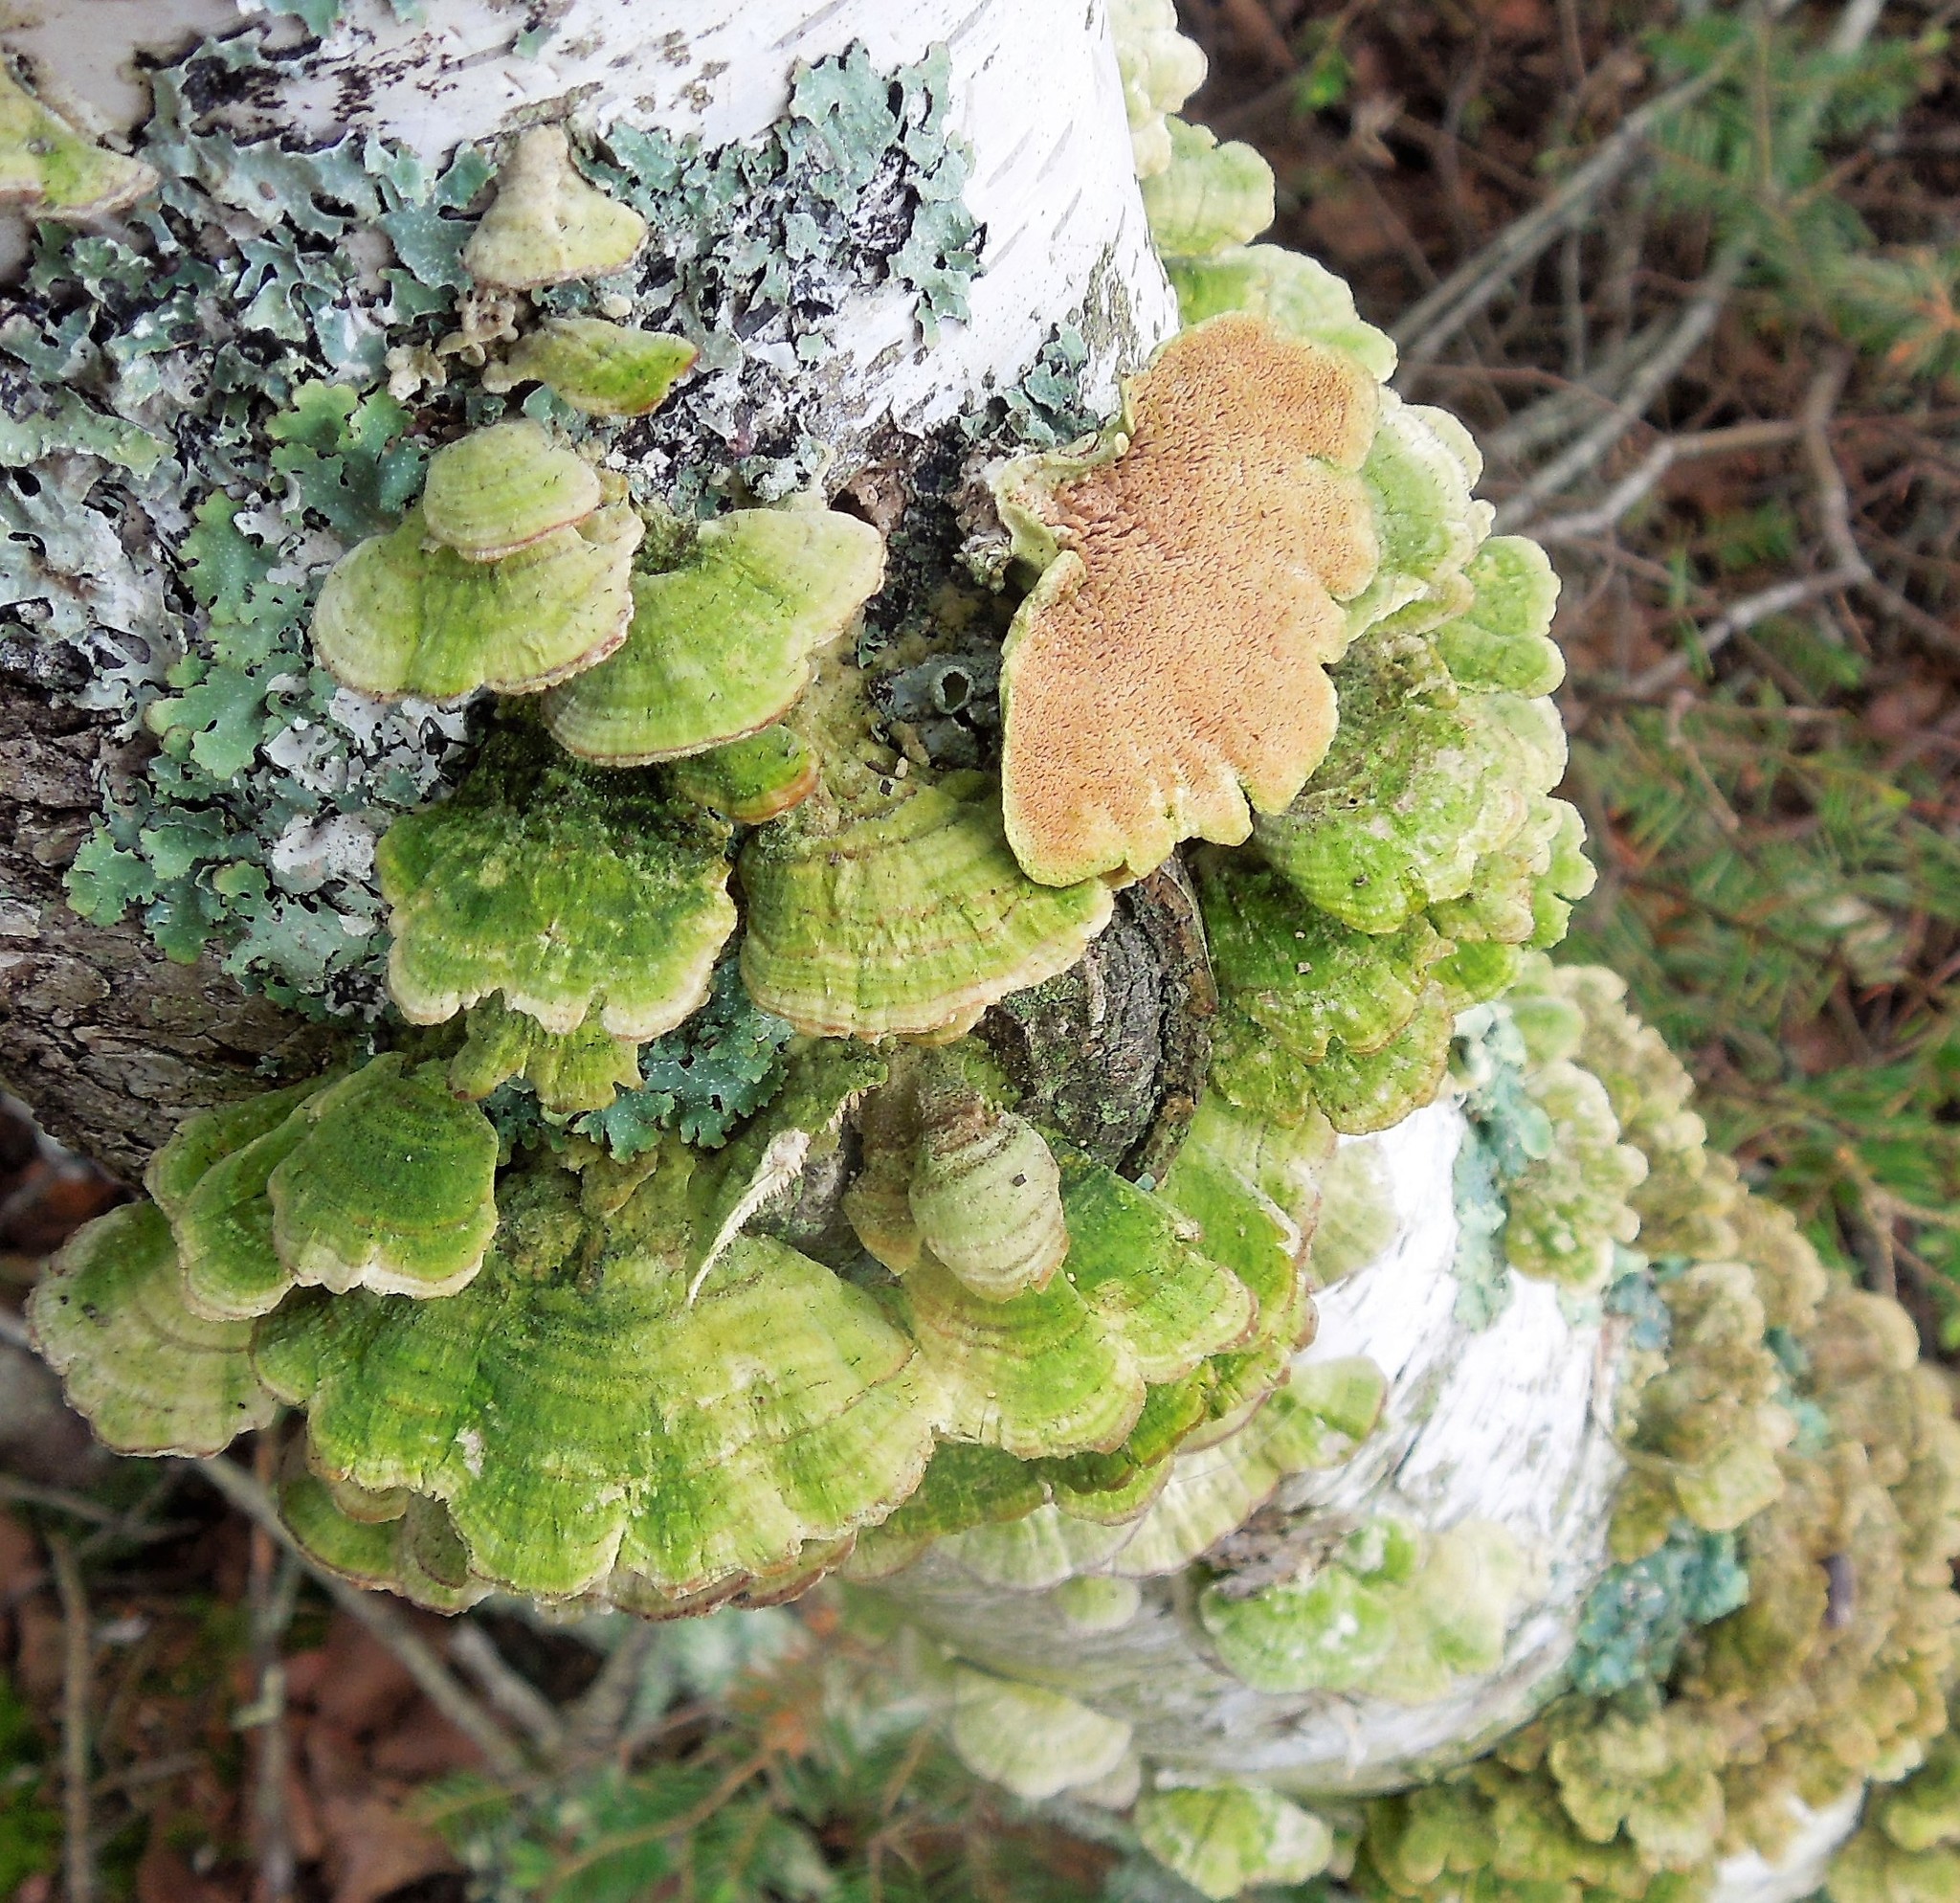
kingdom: Fungi
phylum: Basidiomycota
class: Agaricomycetes
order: Hymenochaetales
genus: Trichaptum
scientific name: Trichaptum
